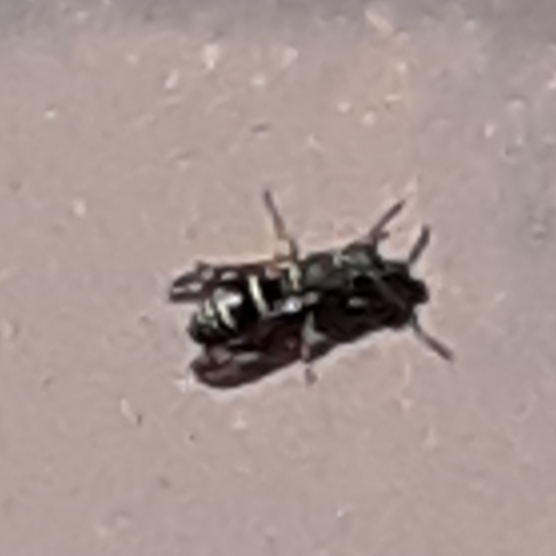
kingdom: Animalia
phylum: Arthropoda
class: Insecta
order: Hymenoptera
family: Eumenidae
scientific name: Eumenidae
